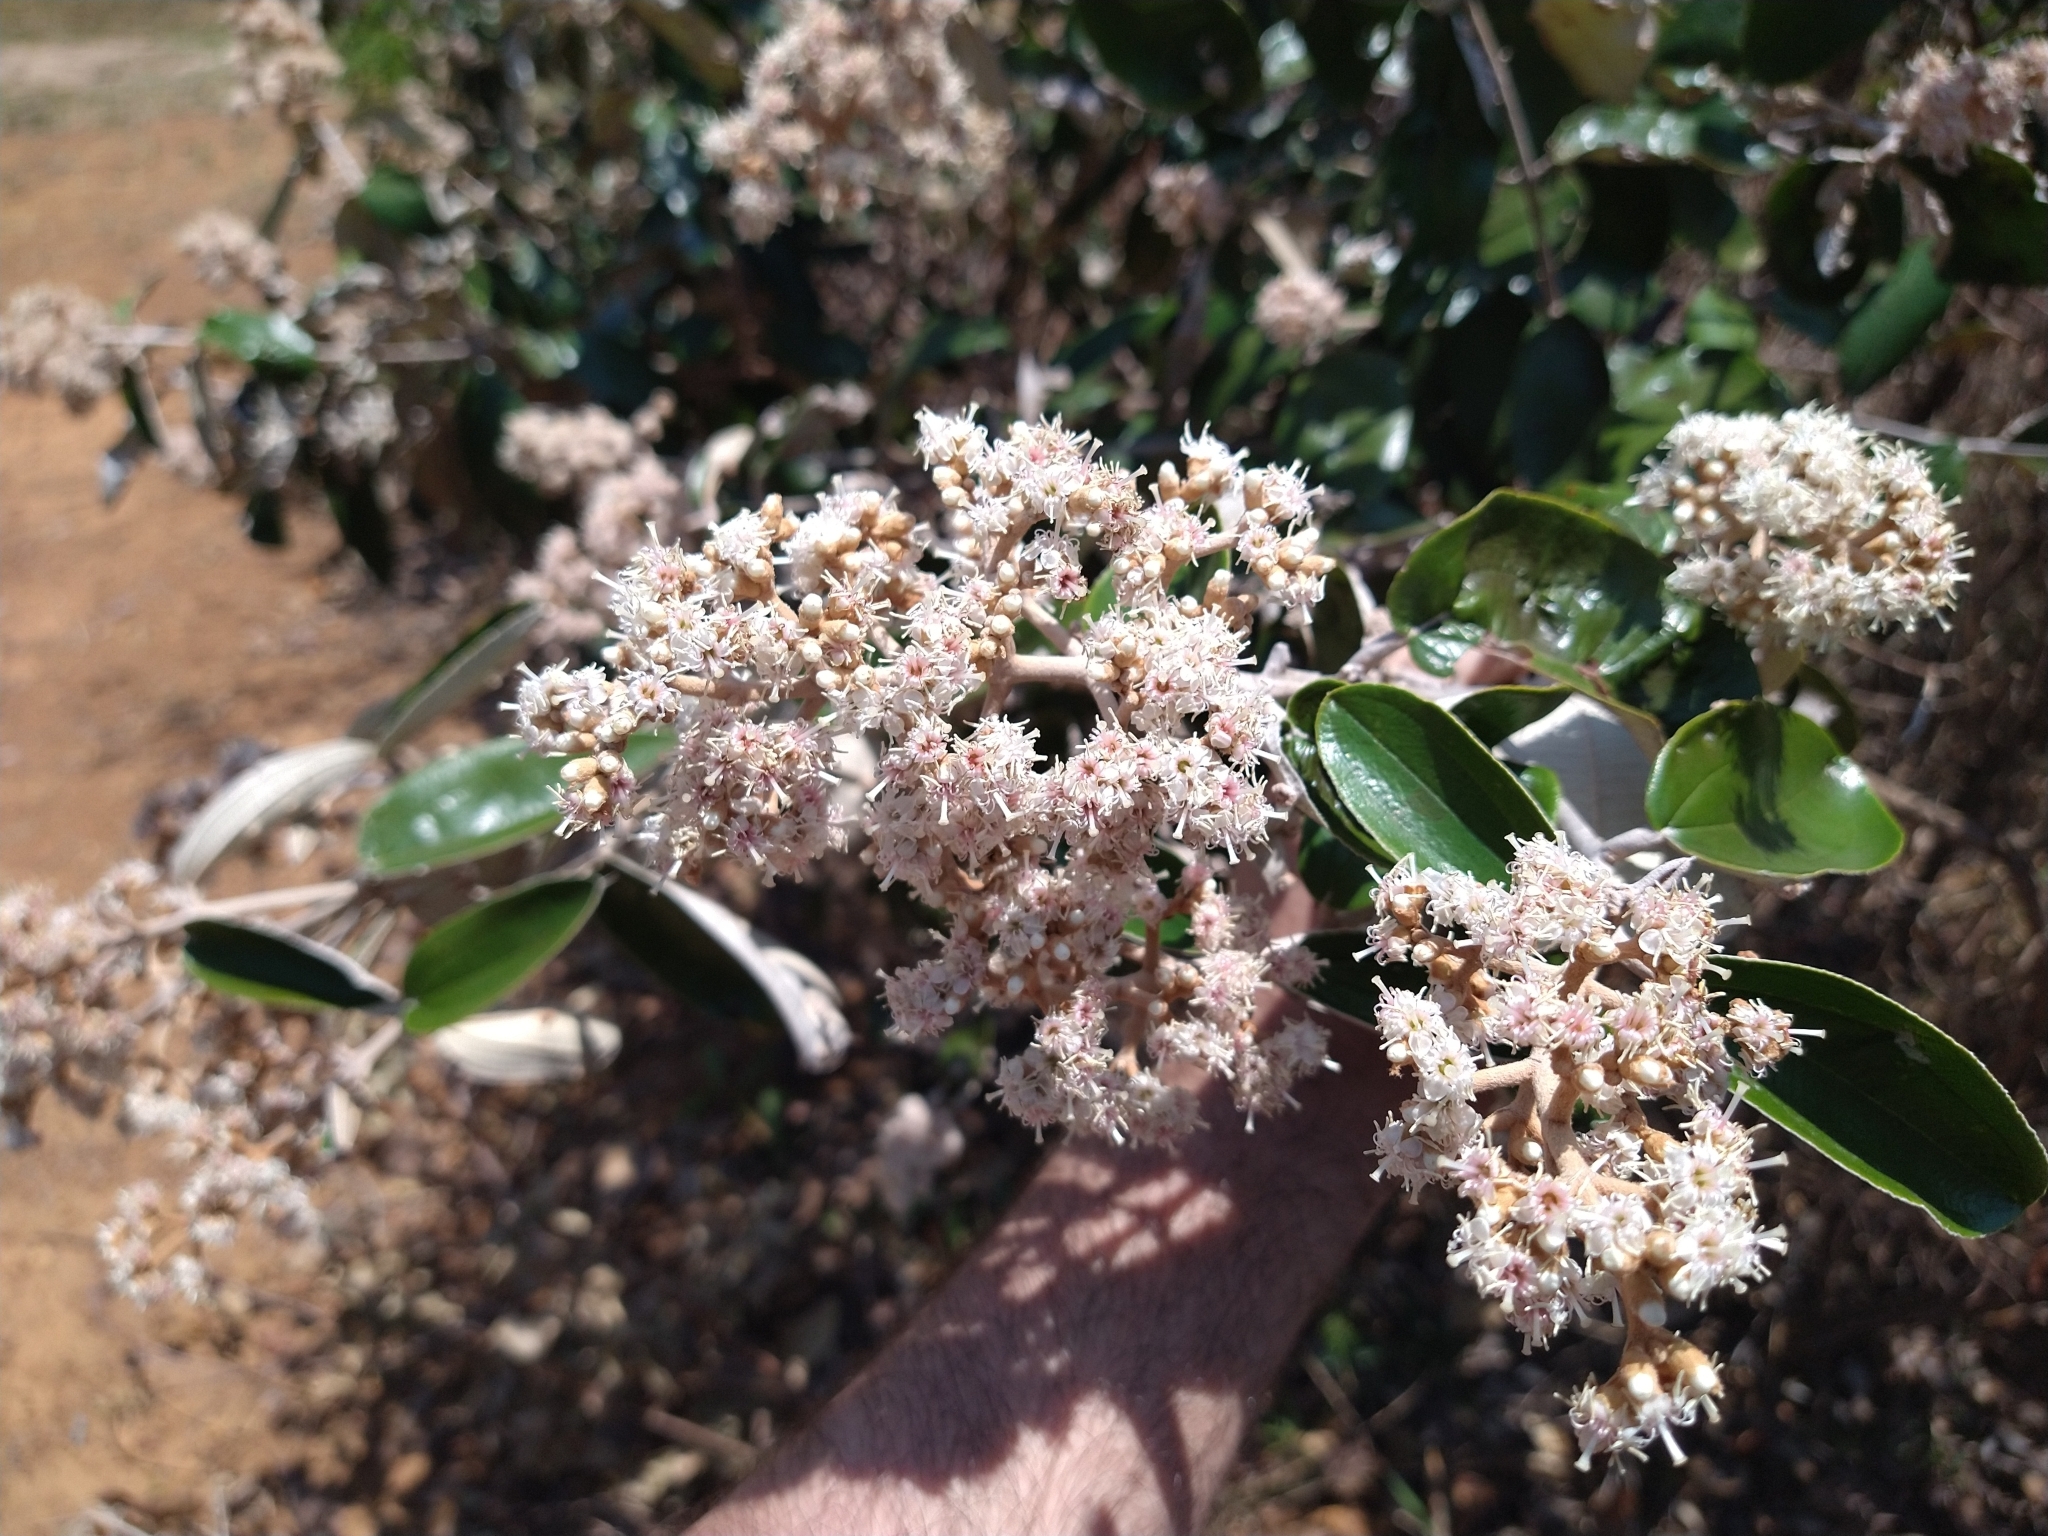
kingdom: Plantae
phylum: Tracheophyta
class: Magnoliopsida
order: Myrtales
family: Melastomataceae
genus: Miconia
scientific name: Miconia albicans
